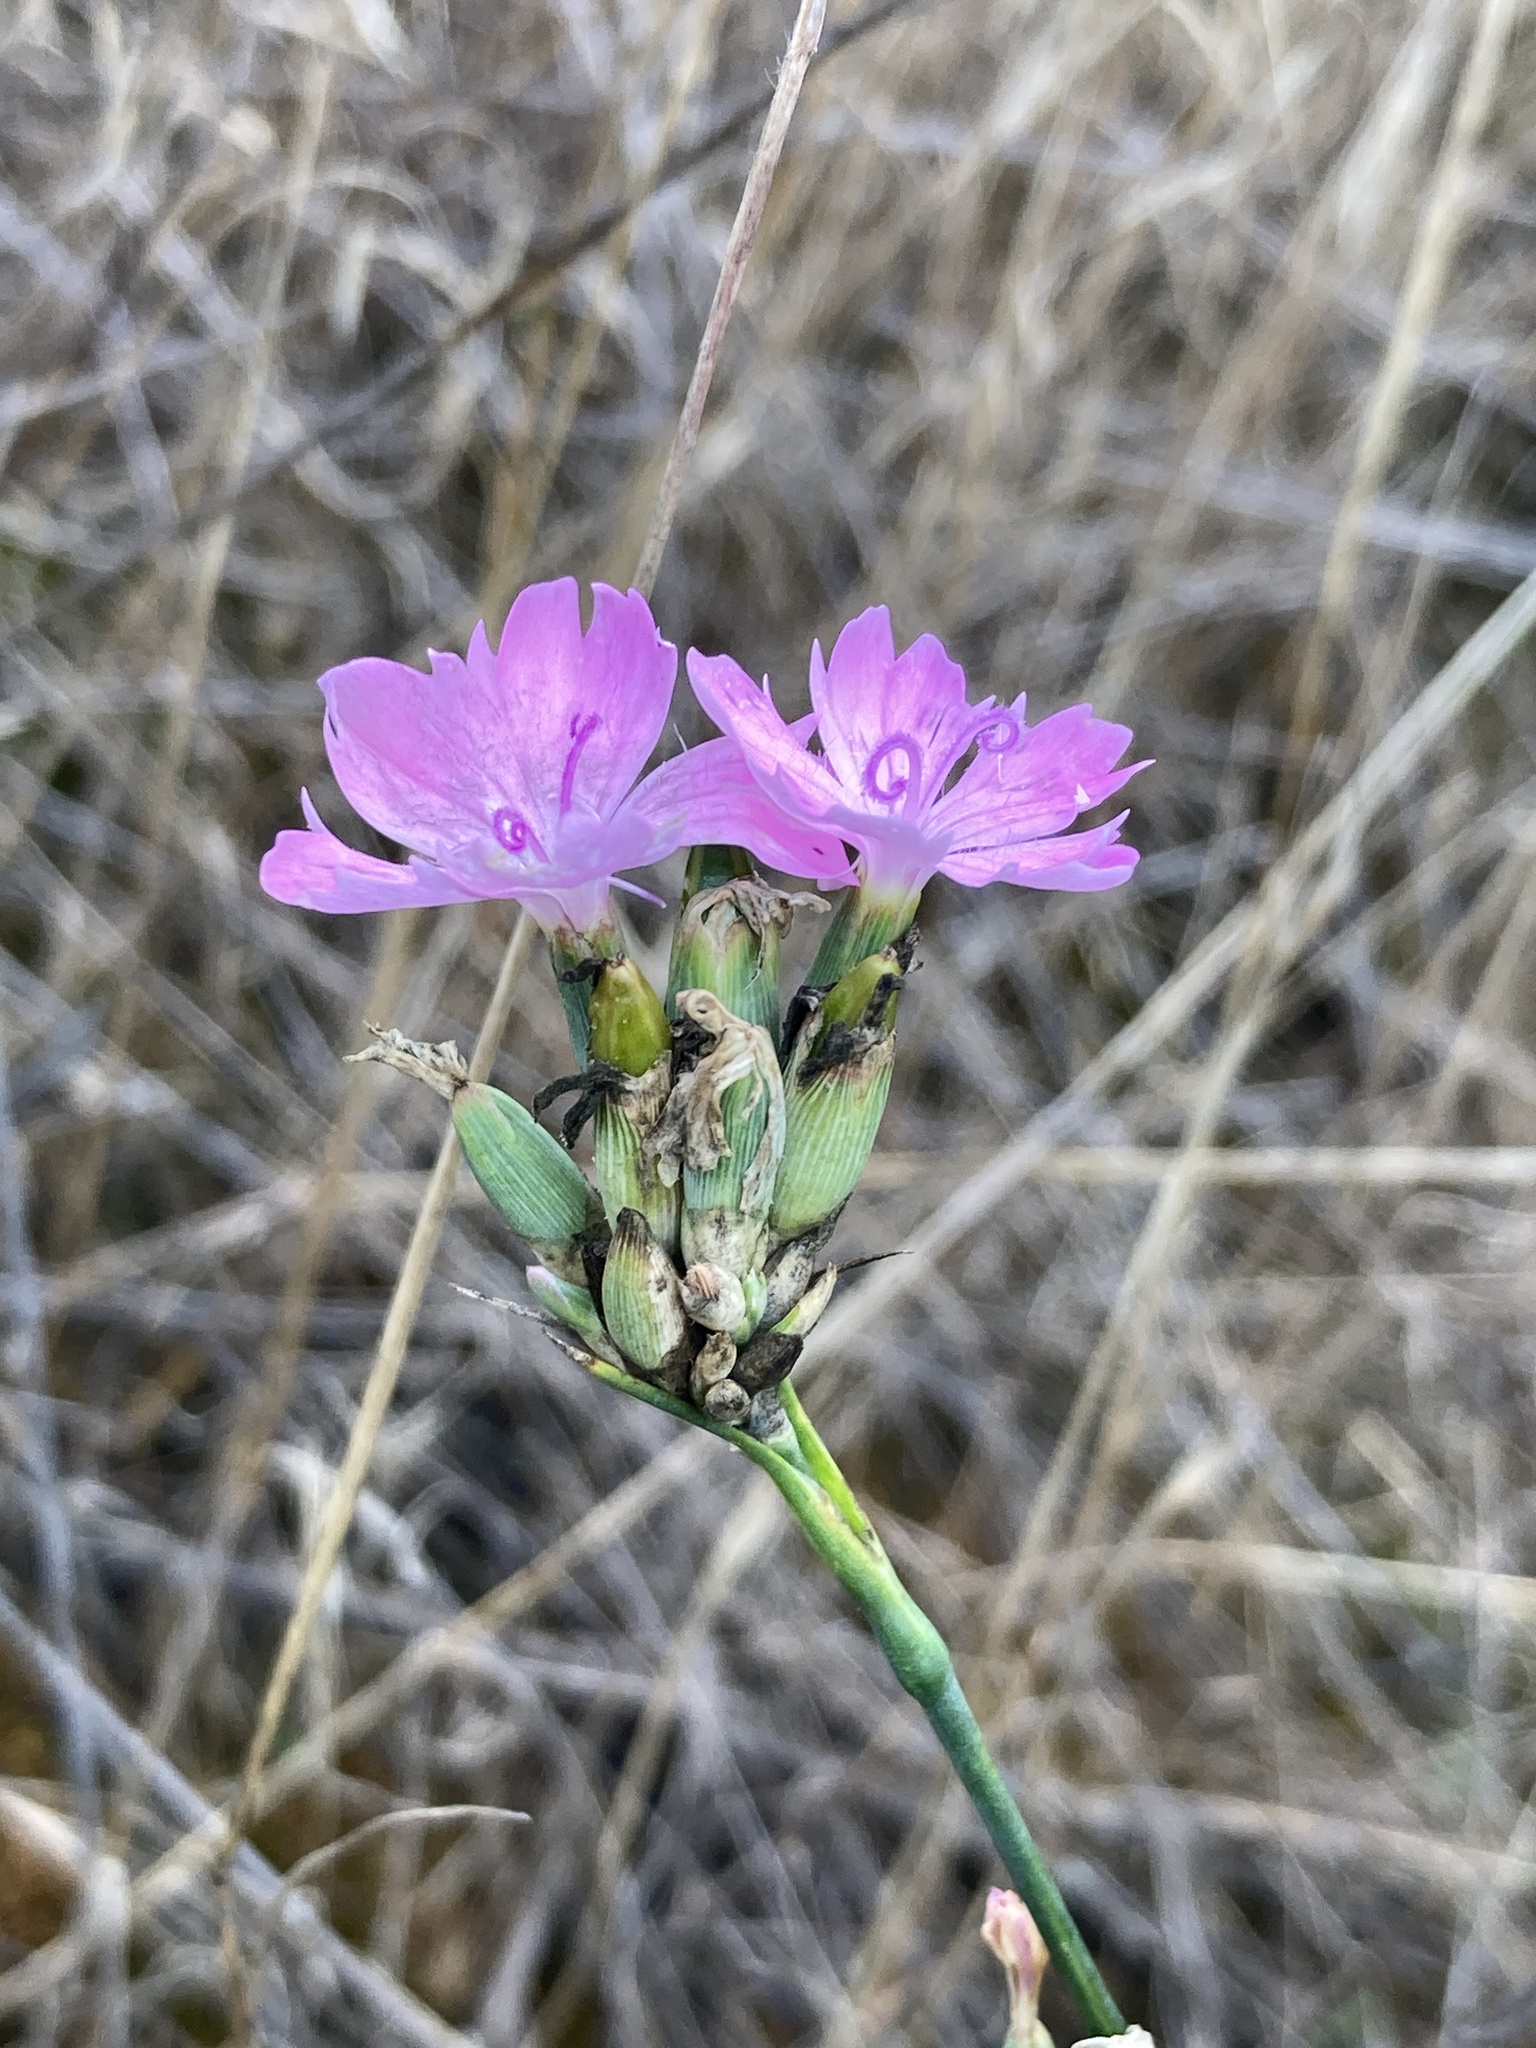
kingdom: Plantae
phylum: Tracheophyta
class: Magnoliopsida
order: Caryophyllales
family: Caryophyllaceae
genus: Dianthus
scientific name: Dianthus polymorphus
